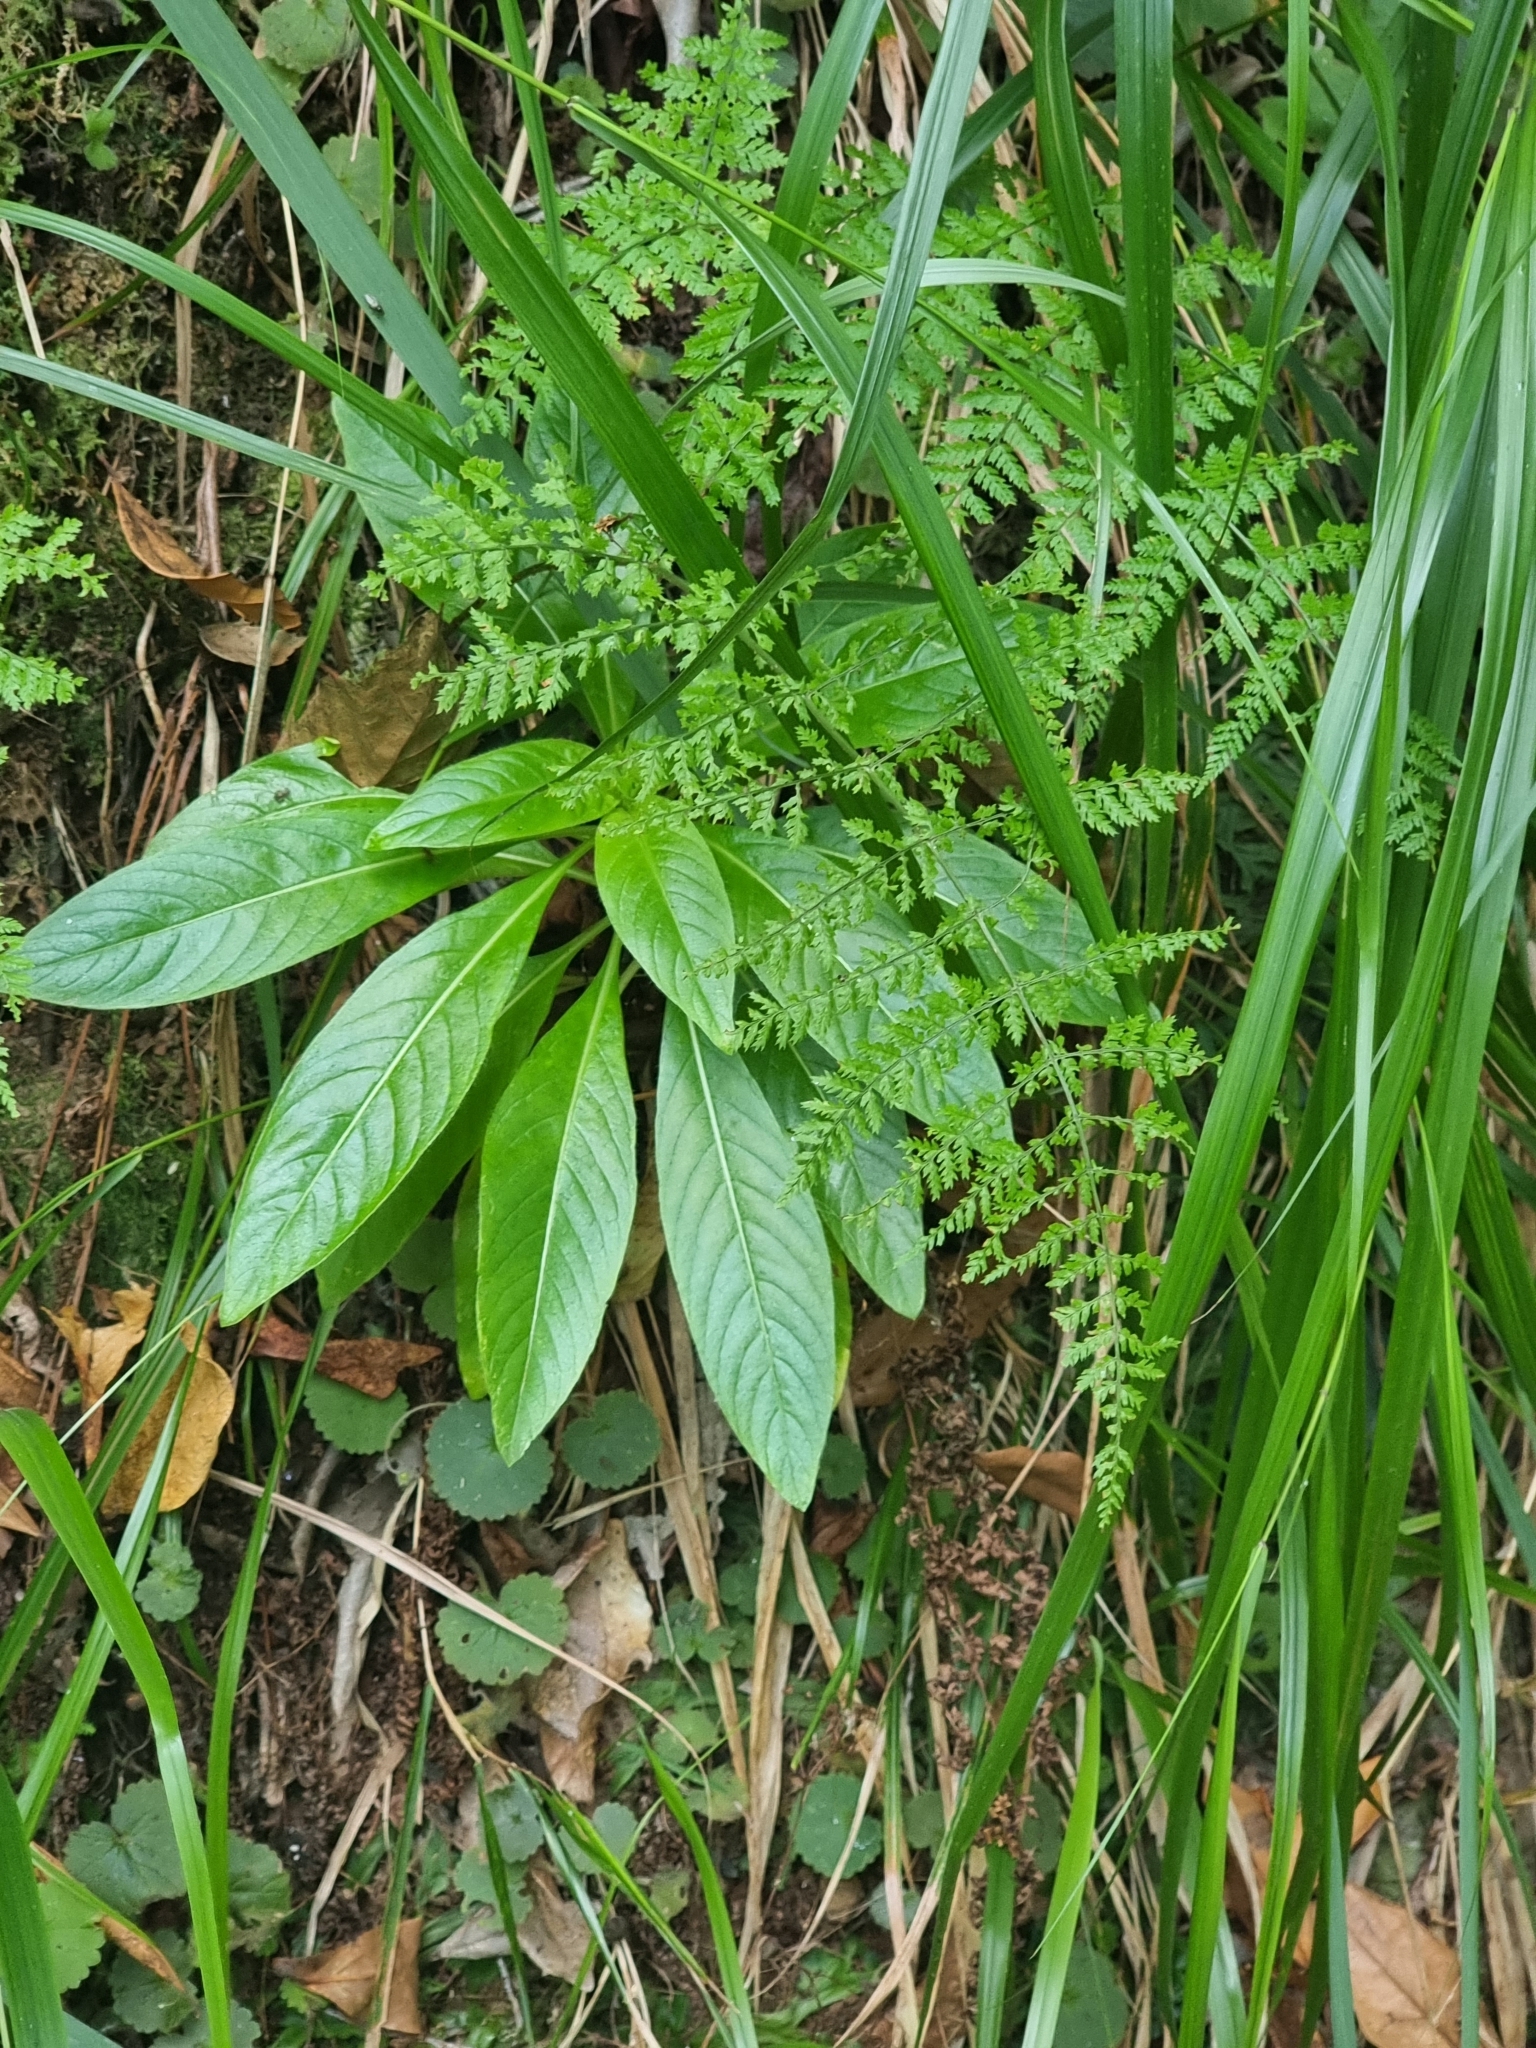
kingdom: Plantae
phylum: Tracheophyta
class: Magnoliopsida
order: Gentianales
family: Rubiaceae
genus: Phyllis
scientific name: Phyllis nobla
